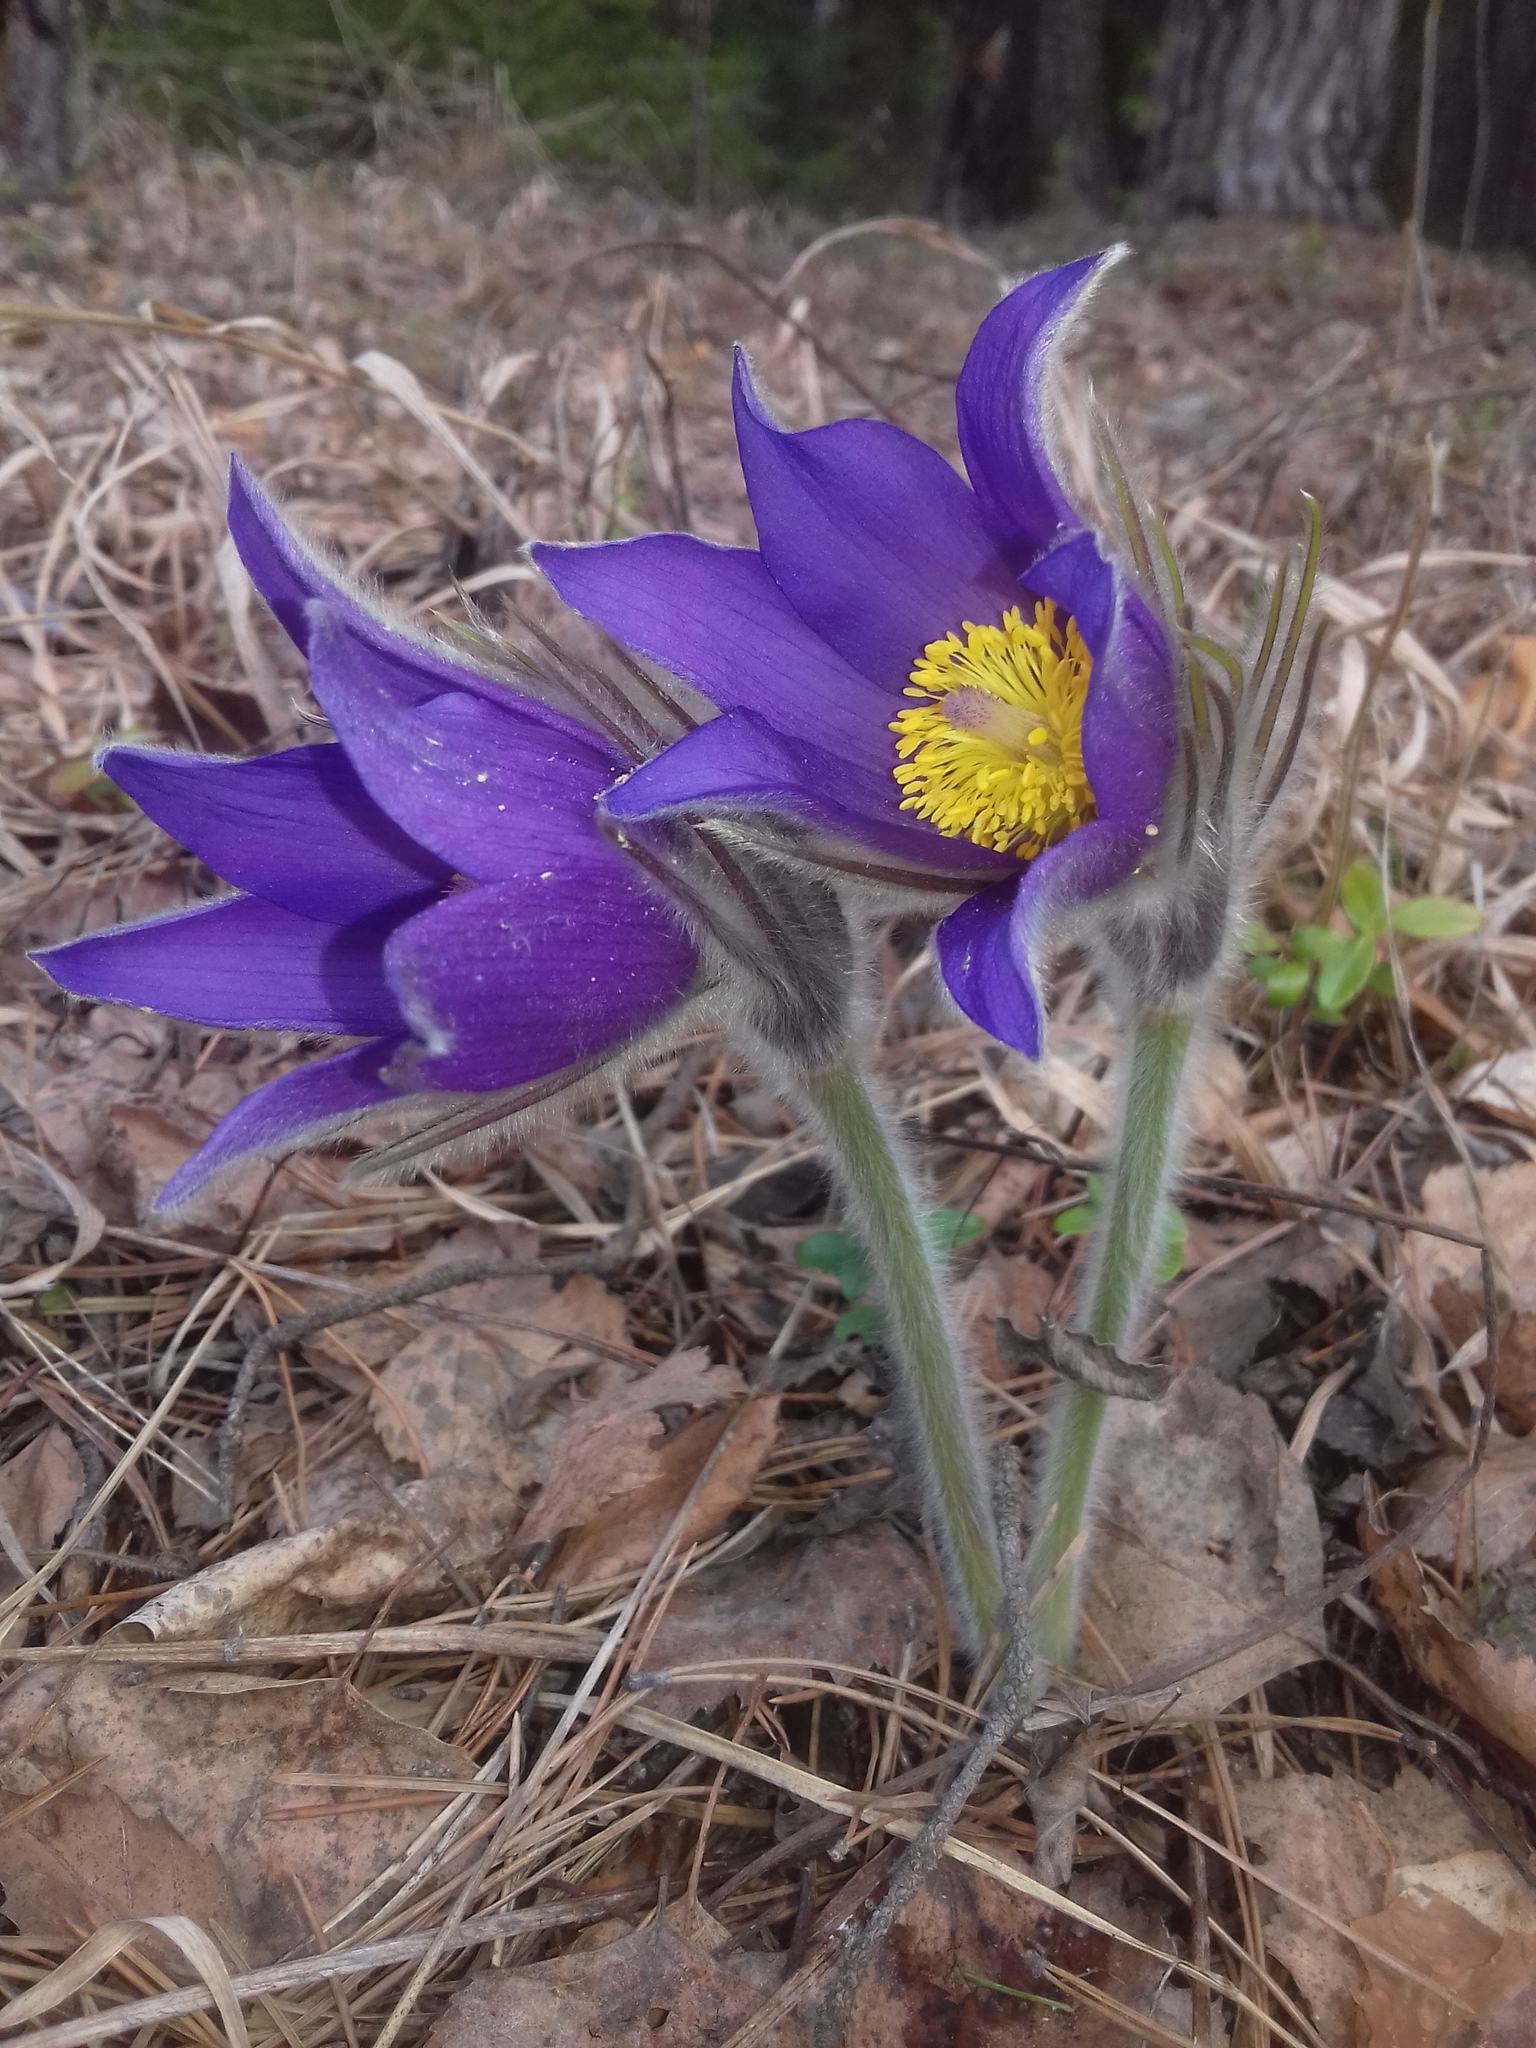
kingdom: Plantae
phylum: Tracheophyta
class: Magnoliopsida
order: Ranunculales
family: Ranunculaceae
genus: Pulsatilla
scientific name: Pulsatilla patens
